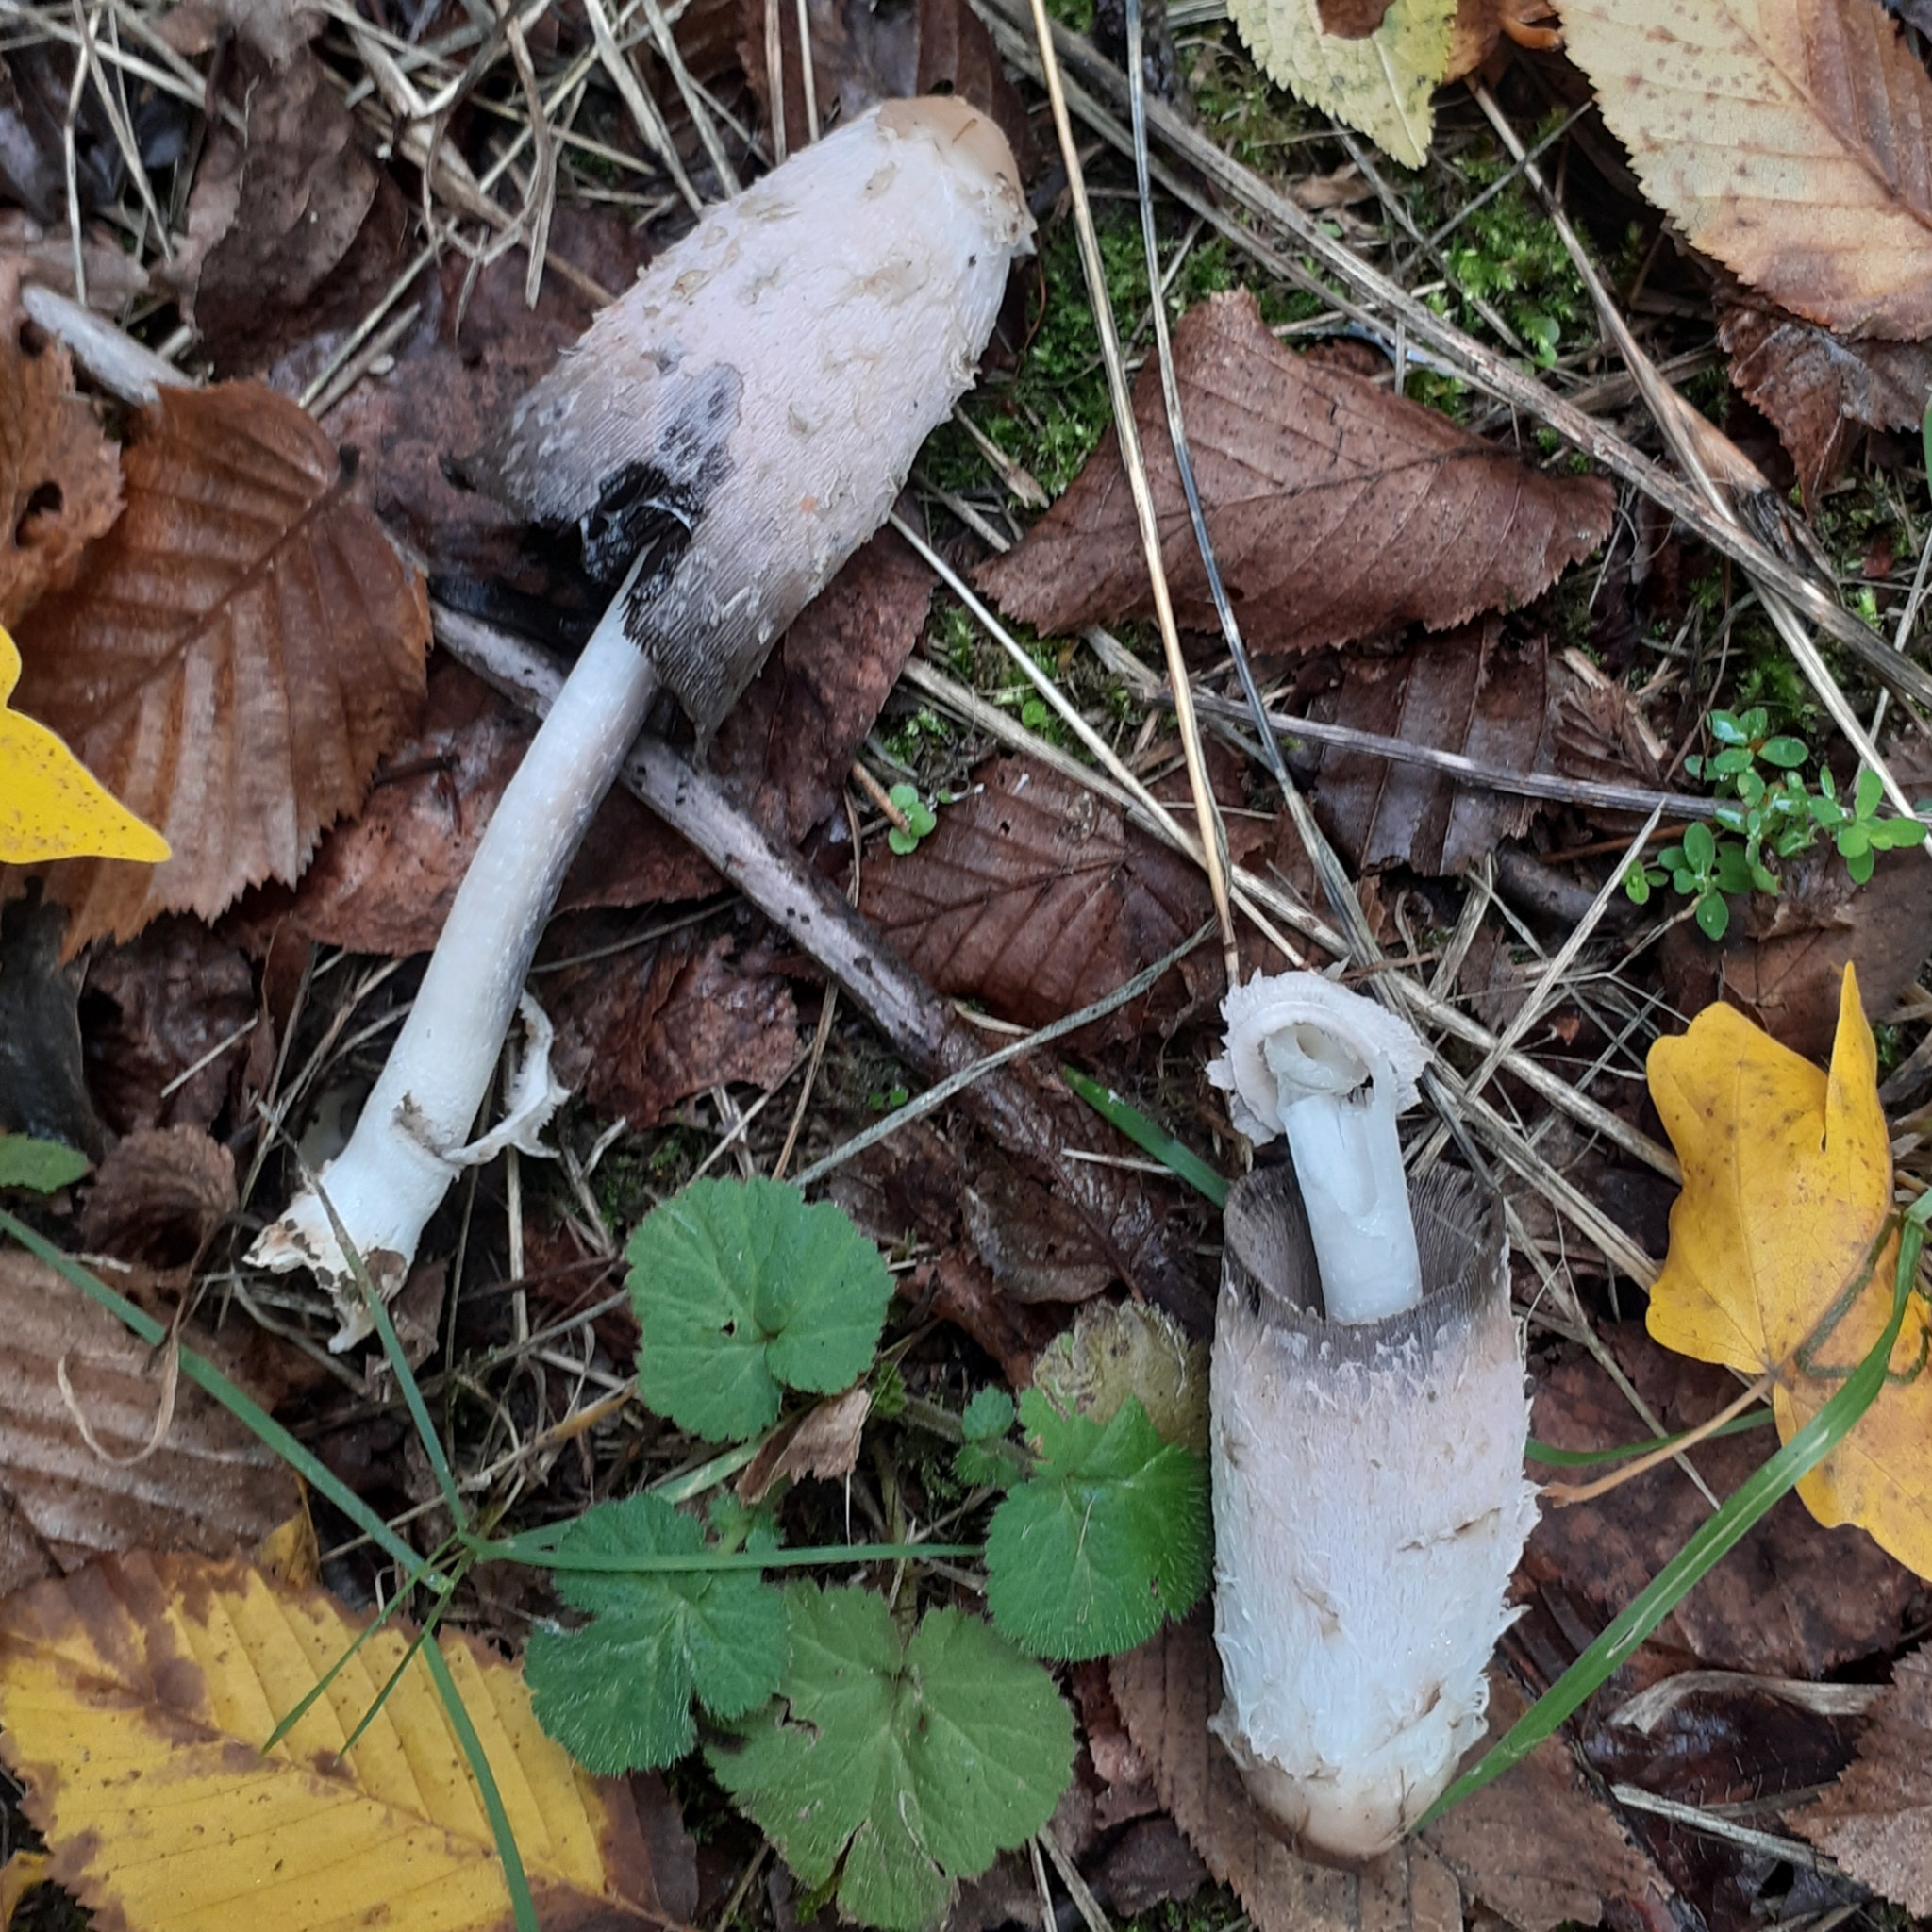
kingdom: Fungi
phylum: Basidiomycota
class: Agaricomycetes
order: Agaricales
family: Agaricaceae
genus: Coprinus
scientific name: Coprinus comatus
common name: Lawyer's wig
